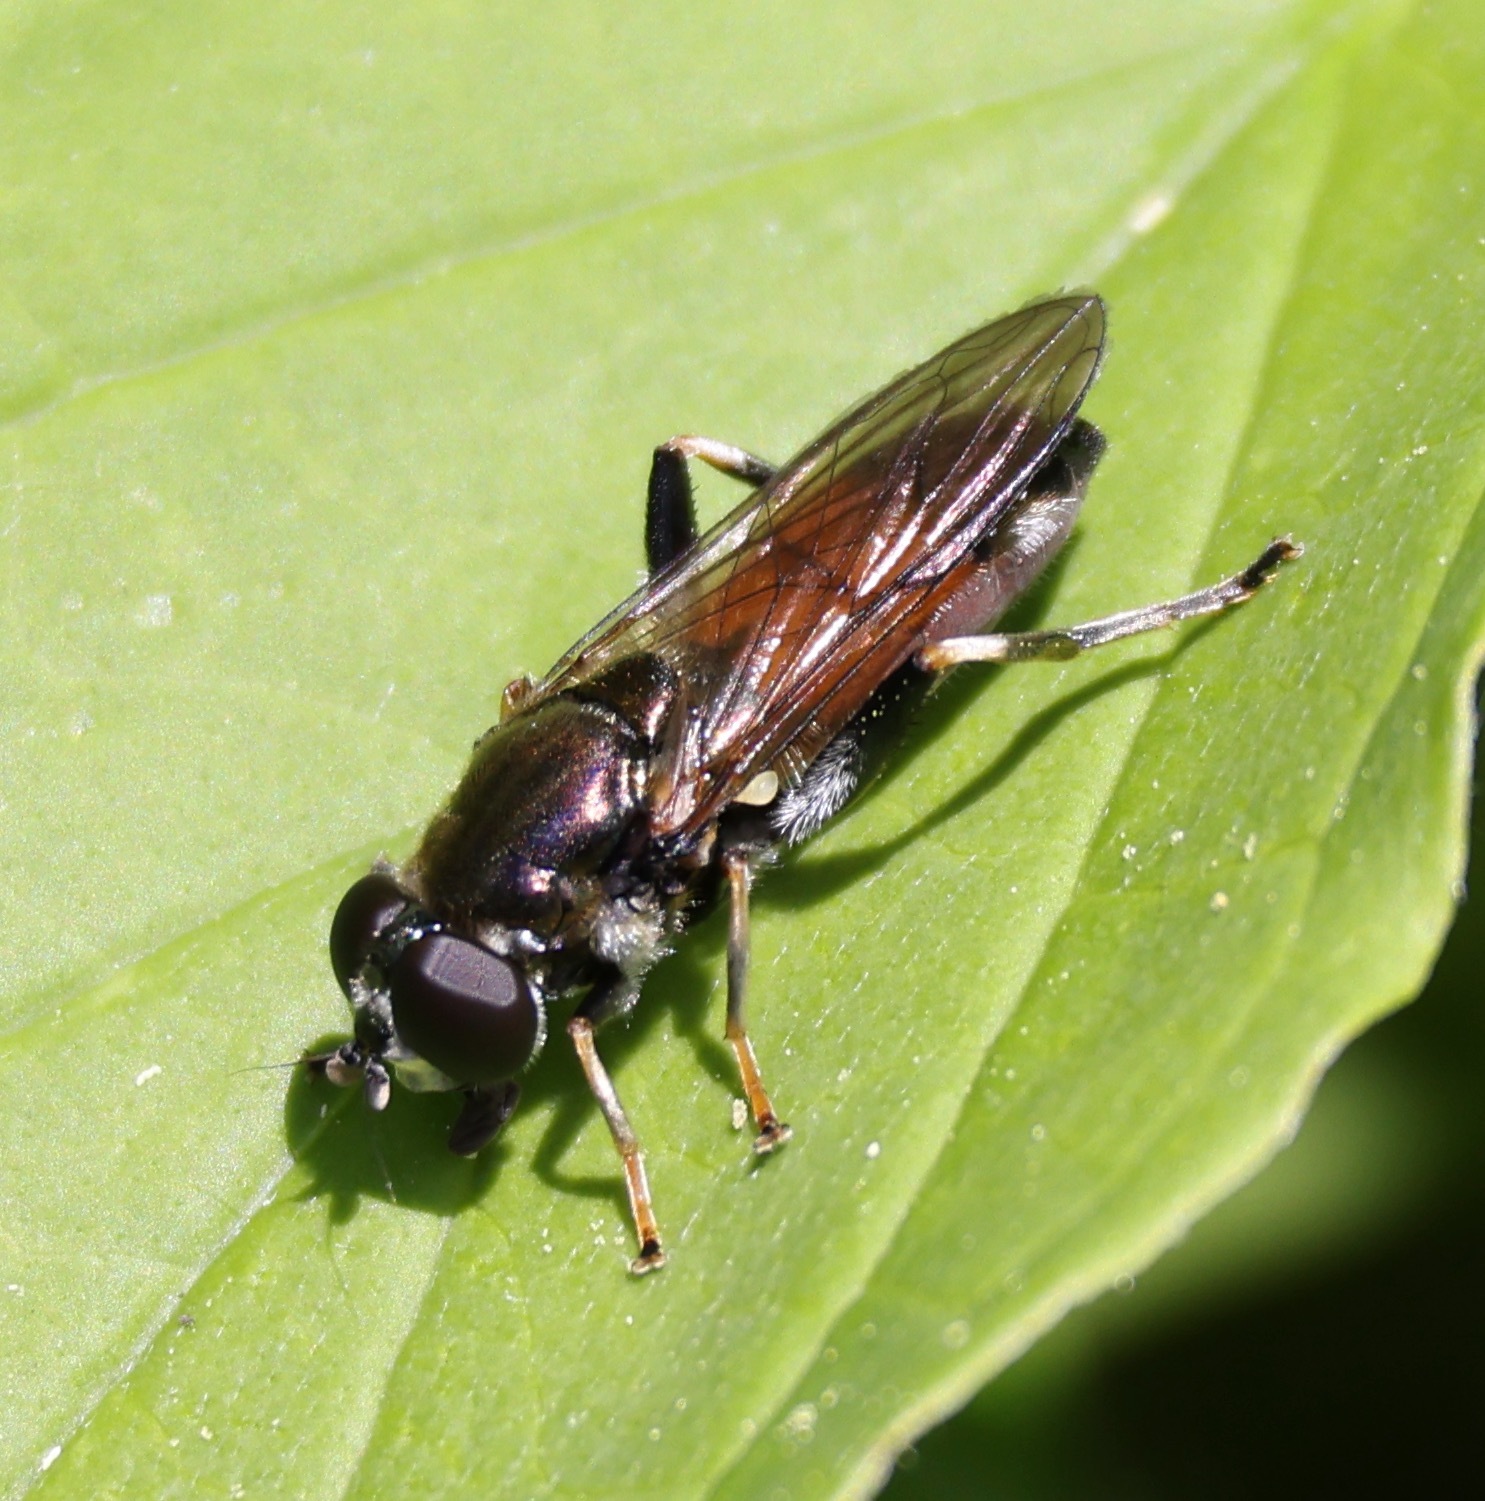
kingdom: Animalia
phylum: Arthropoda
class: Insecta
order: Diptera
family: Syrphidae
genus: Xylota
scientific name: Xylota segnis
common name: Brown-toed forest fly
